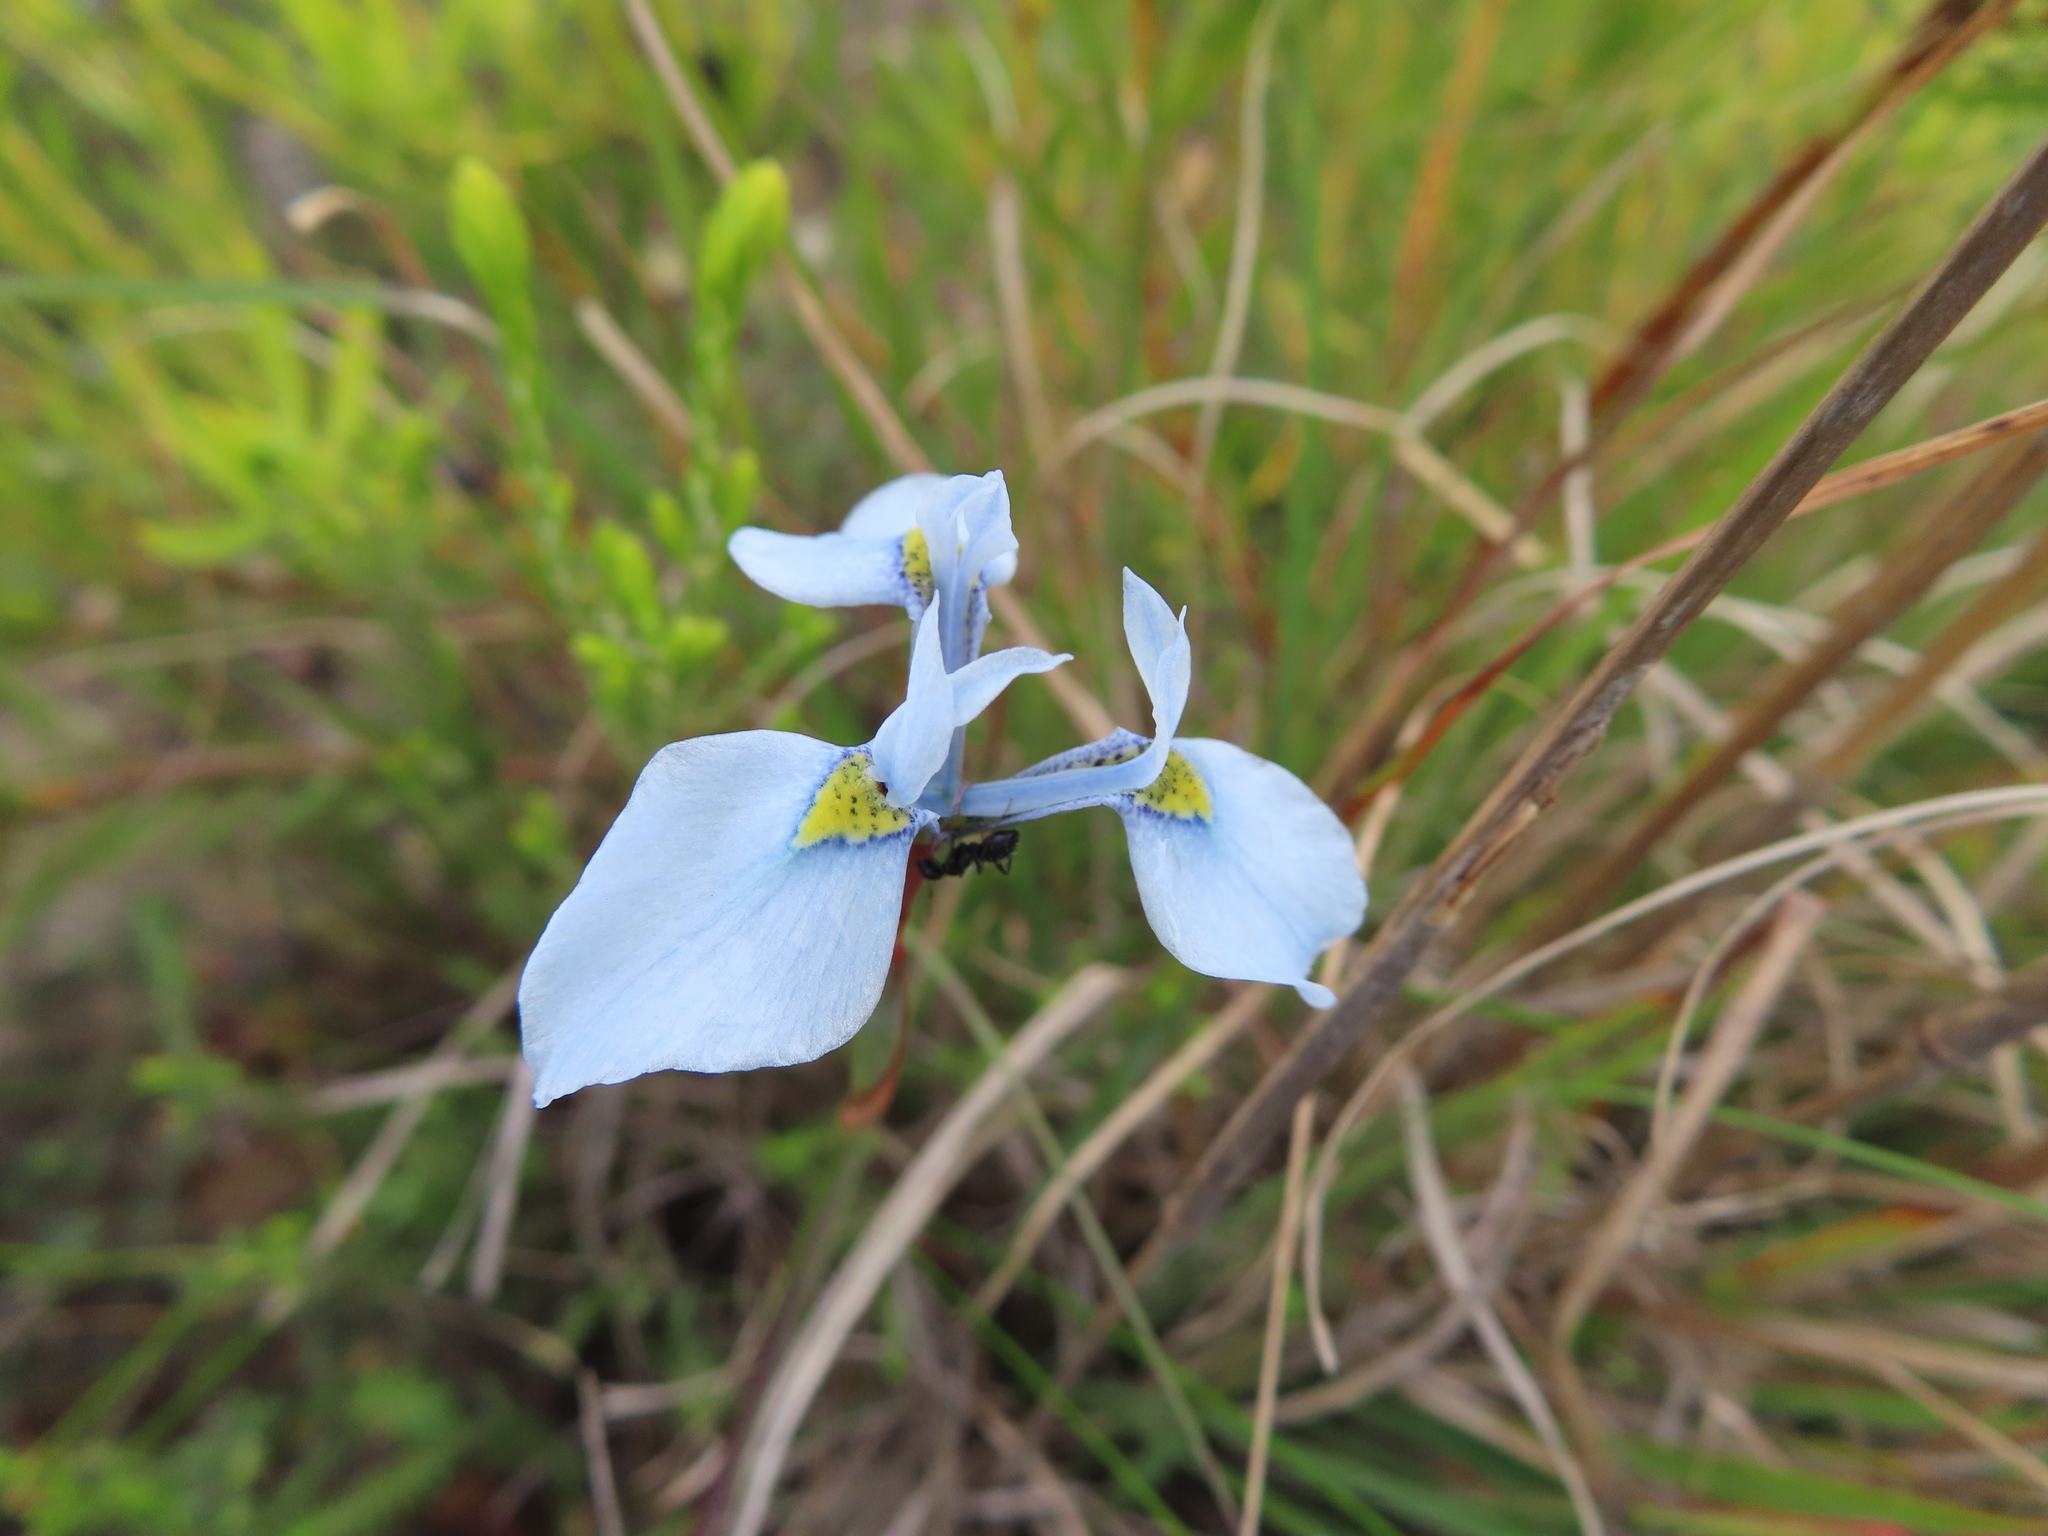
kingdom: Plantae
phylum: Tracheophyta
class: Liliopsida
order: Asparagales
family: Iridaceae
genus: Moraea
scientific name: Moraea tripetala
